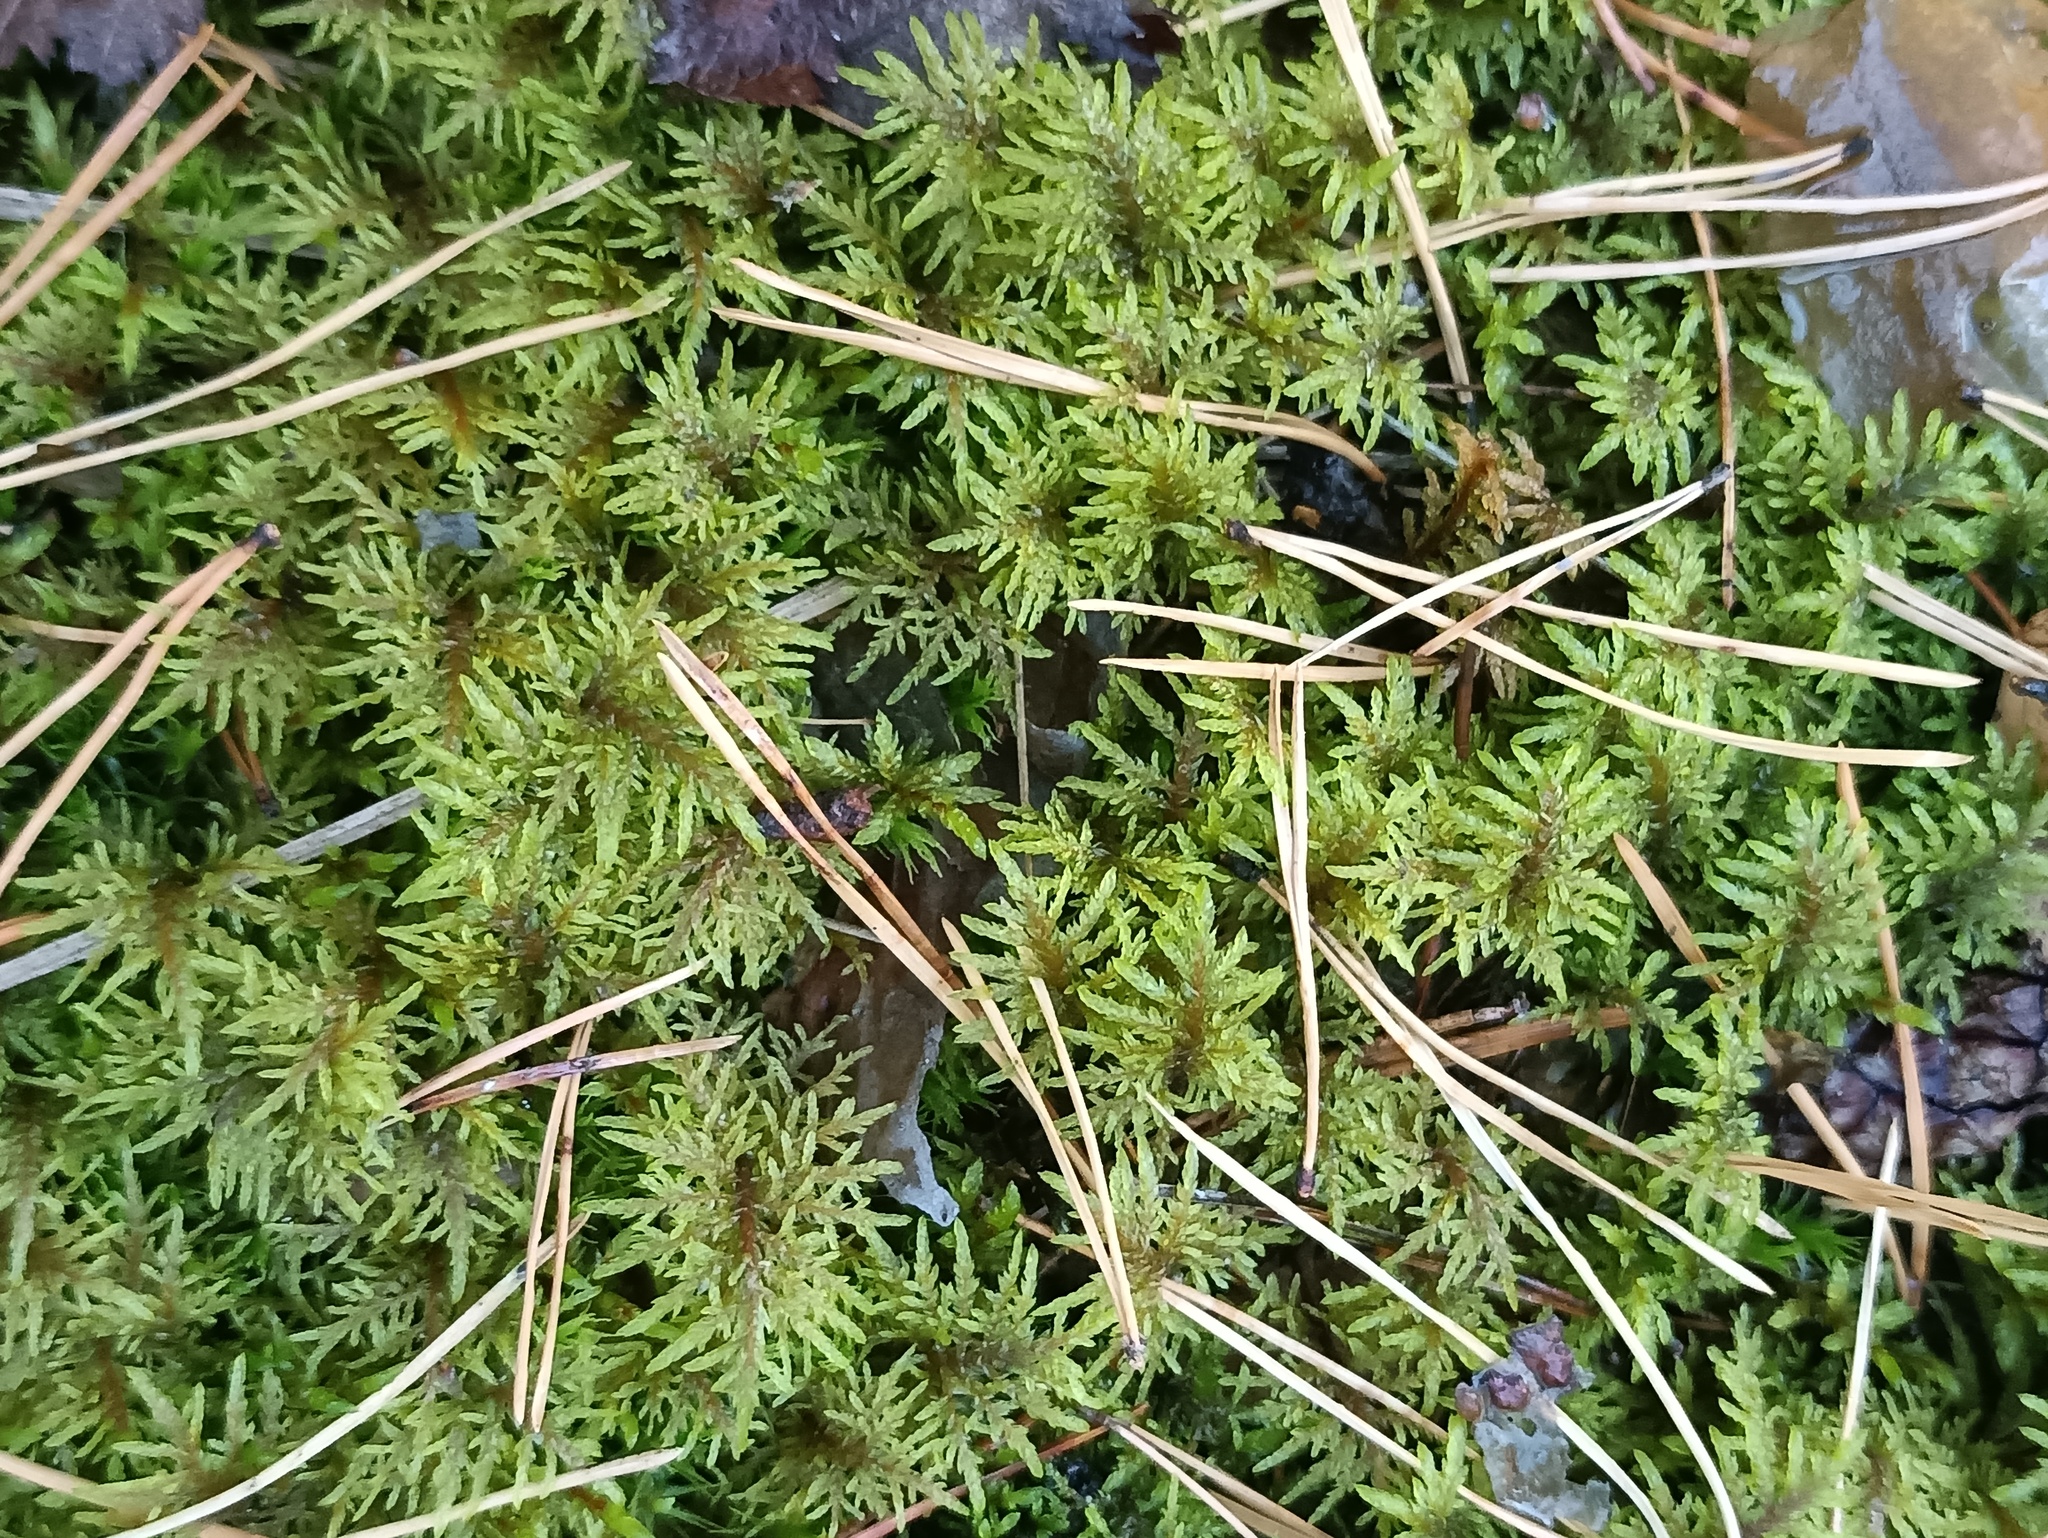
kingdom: Plantae
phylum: Bryophyta
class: Bryopsida
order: Hypnales
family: Hylocomiaceae
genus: Hylocomium
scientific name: Hylocomium splendens
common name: Stairstep moss
